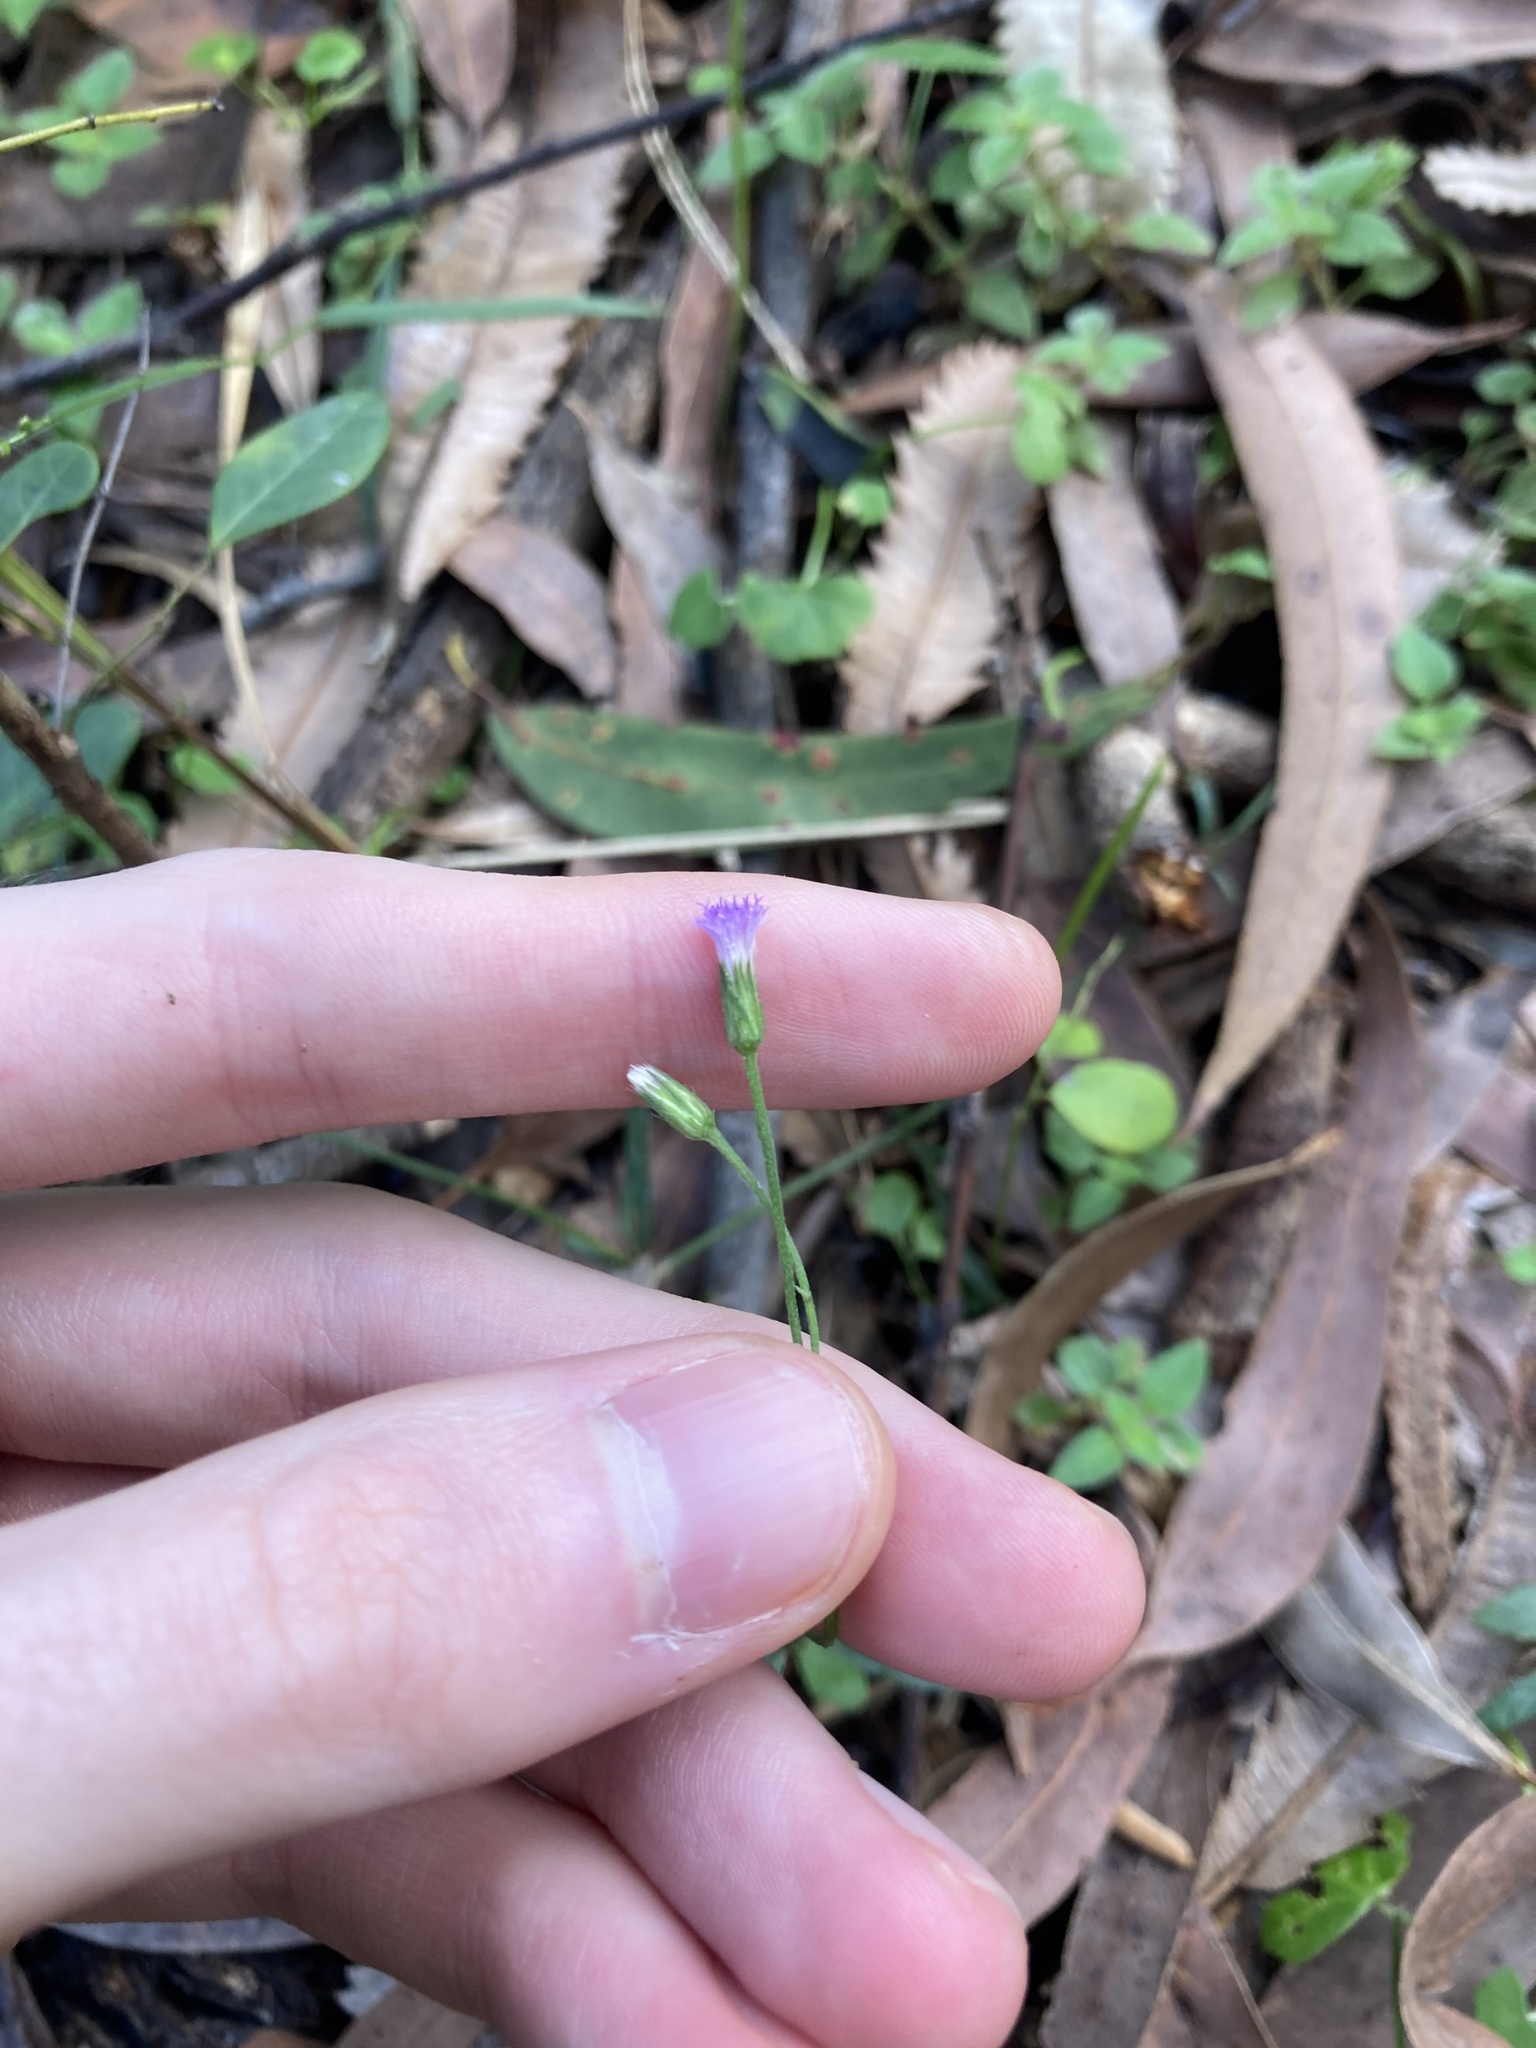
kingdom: Plantae
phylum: Tracheophyta
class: Magnoliopsida
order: Asterales
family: Asteraceae
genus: Cyanthillium
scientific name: Cyanthillium cinereum
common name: Little ironweed
